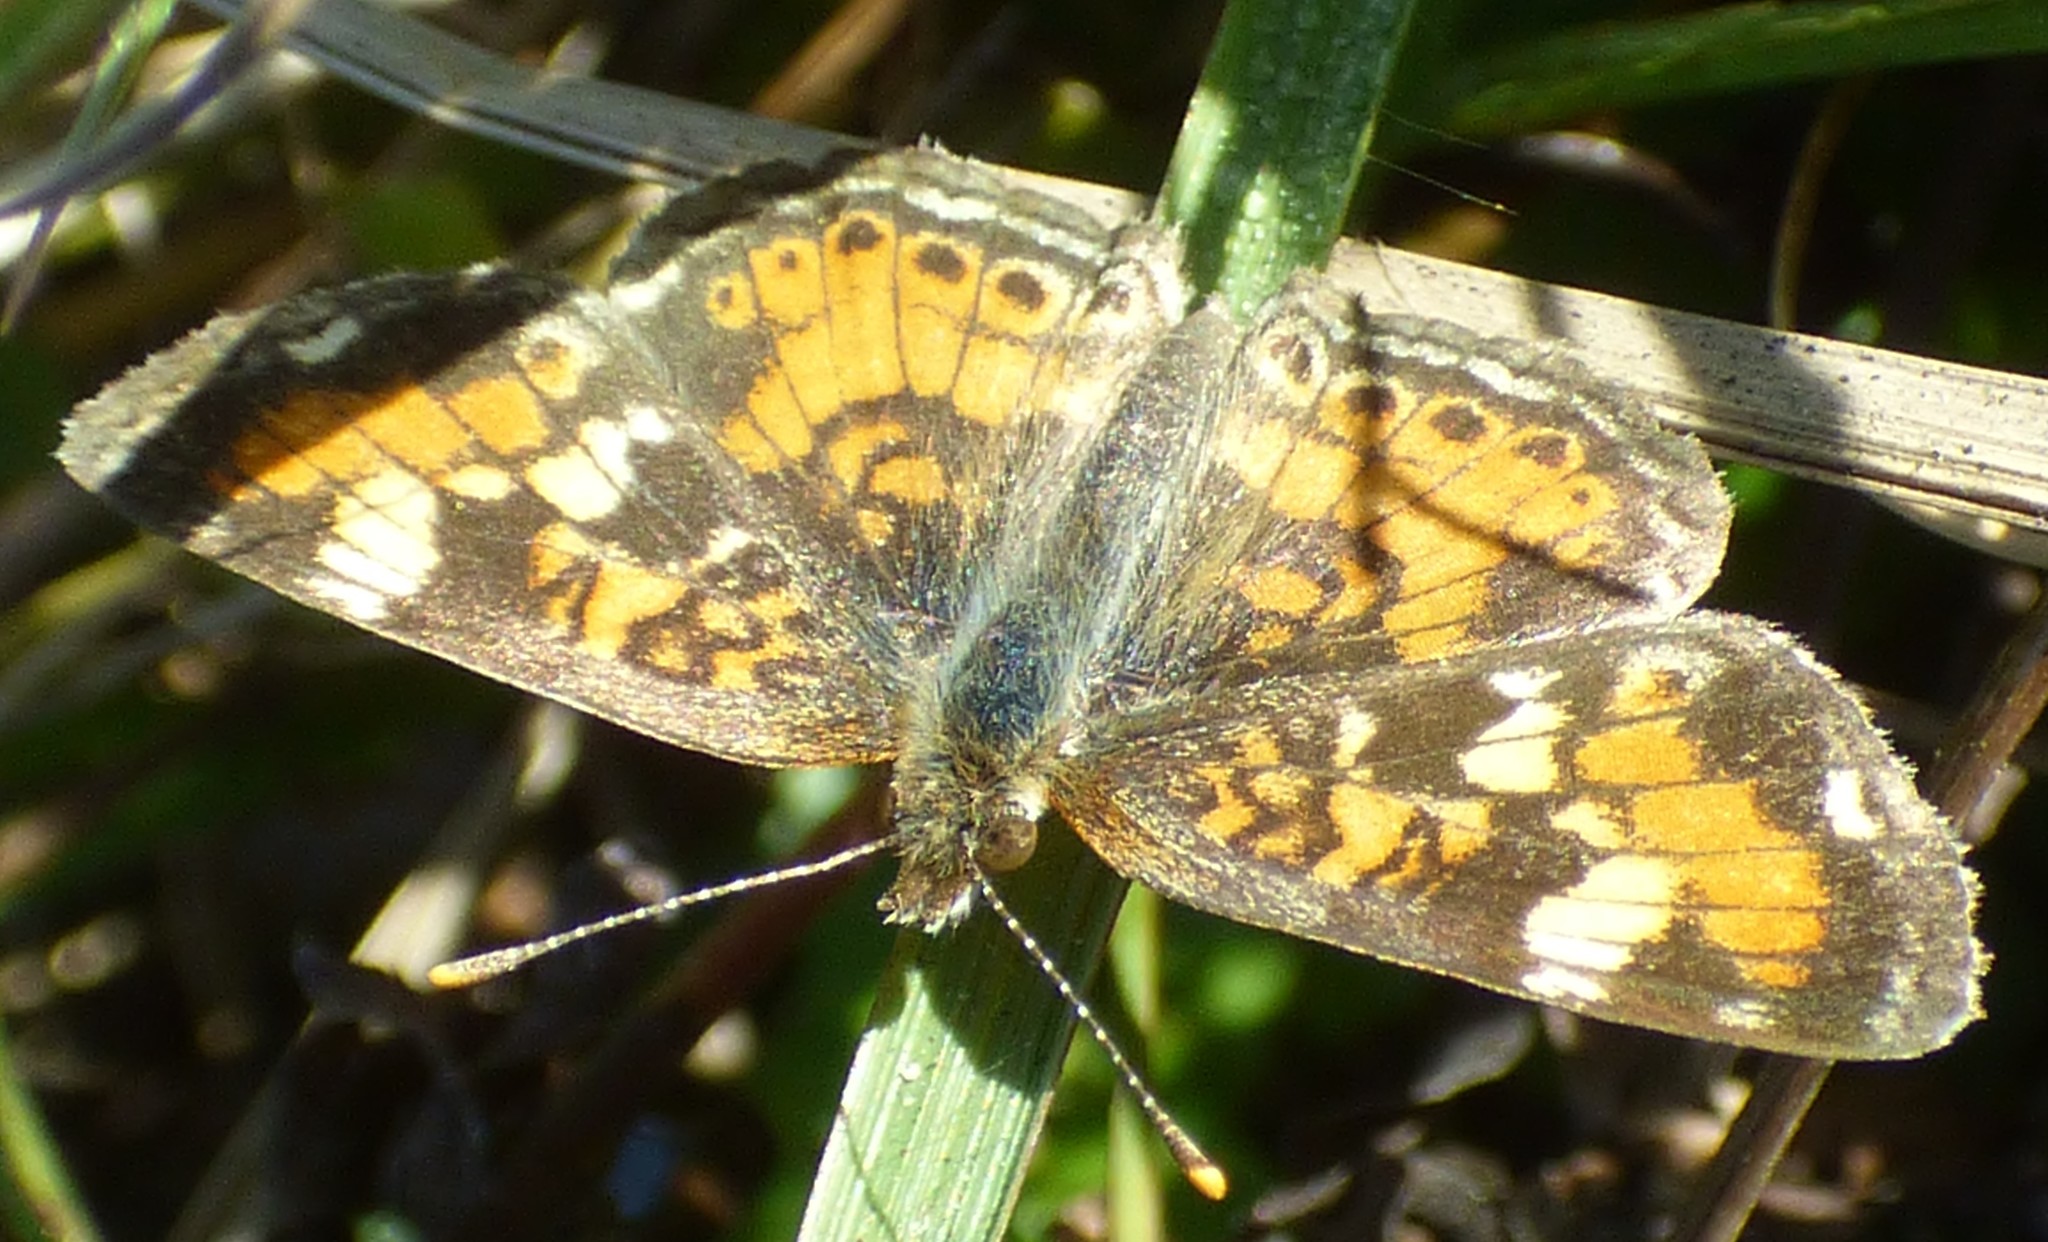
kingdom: Animalia
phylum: Arthropoda
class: Insecta
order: Lepidoptera
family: Nymphalidae
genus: Phyciodes
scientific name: Phyciodes phaon
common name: Phaon crescent
